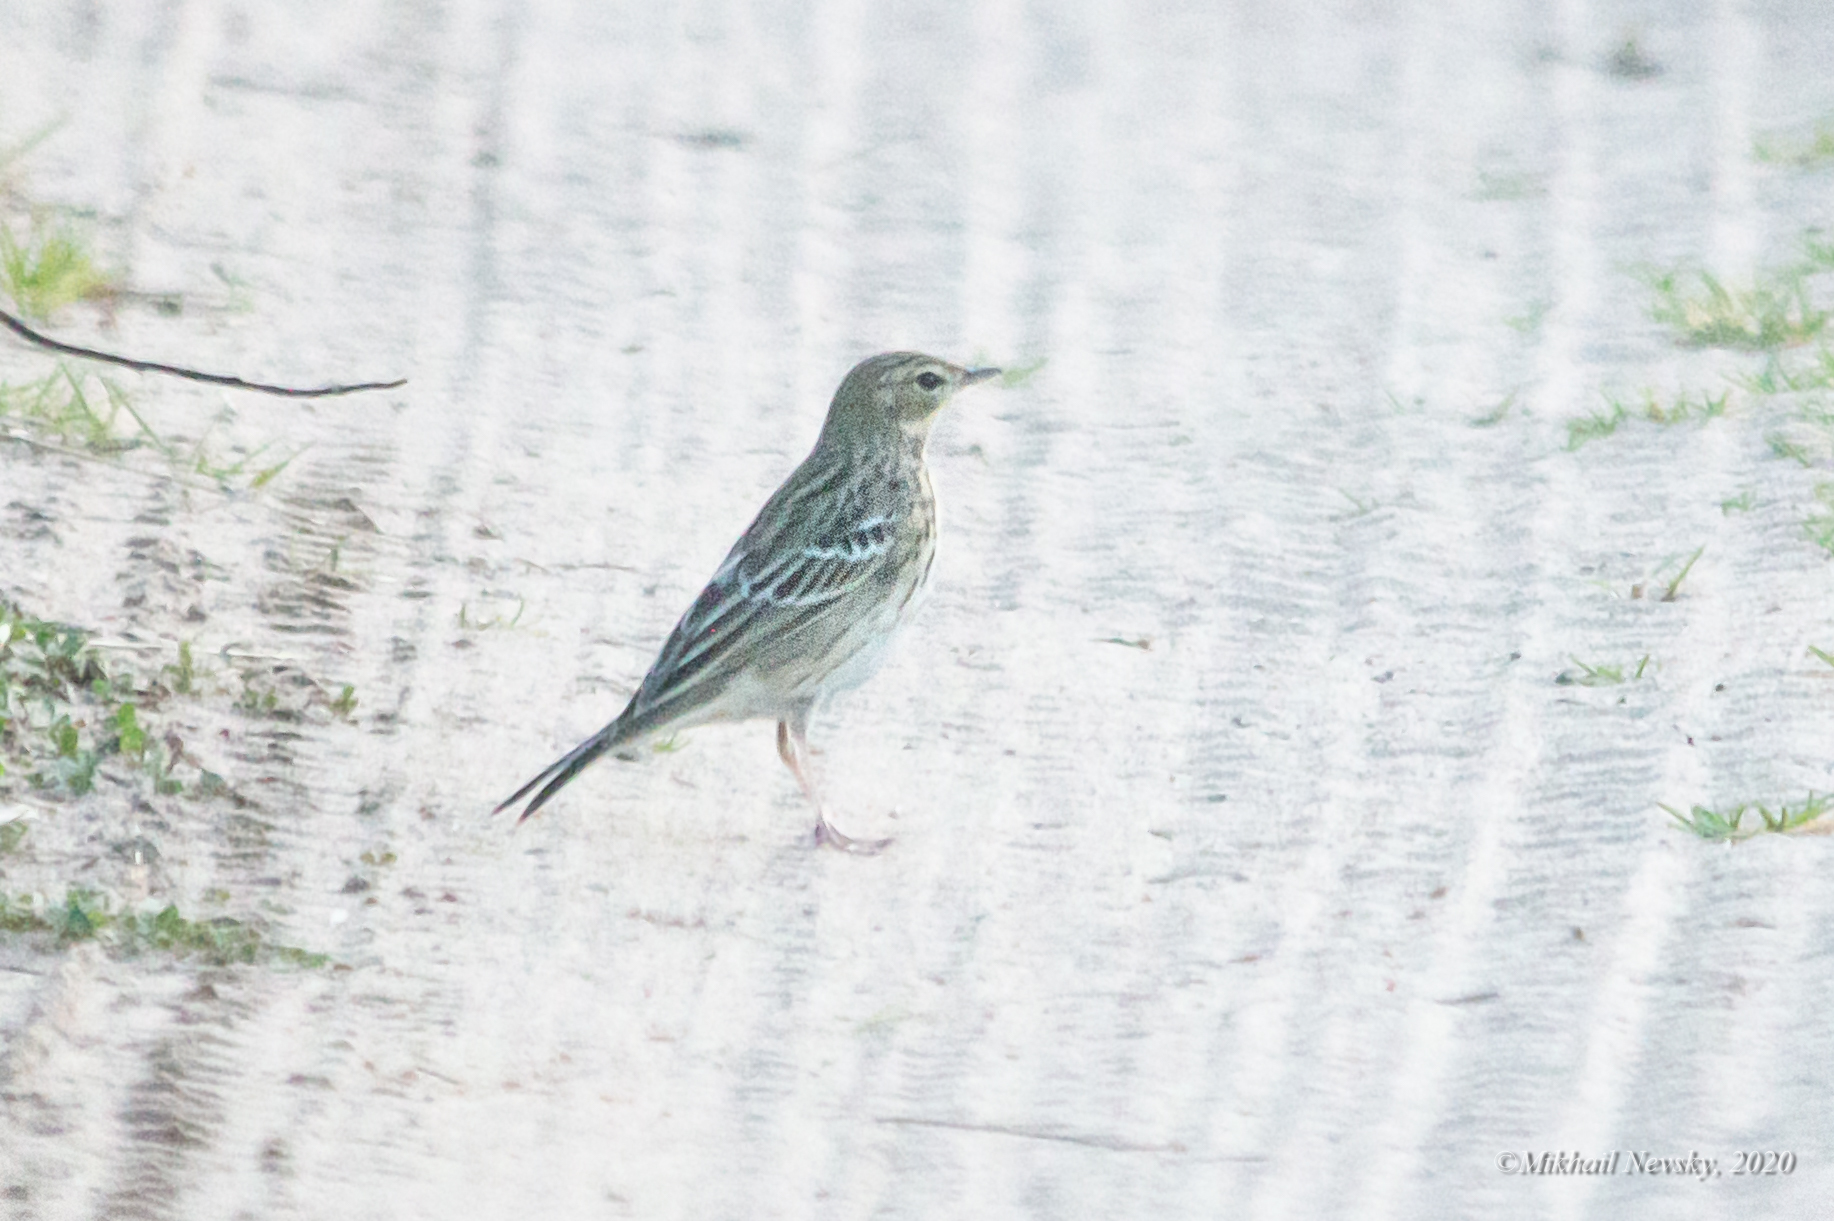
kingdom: Animalia
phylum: Chordata
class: Aves
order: Passeriformes
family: Motacillidae
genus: Anthus
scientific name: Anthus trivialis
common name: Tree pipit
